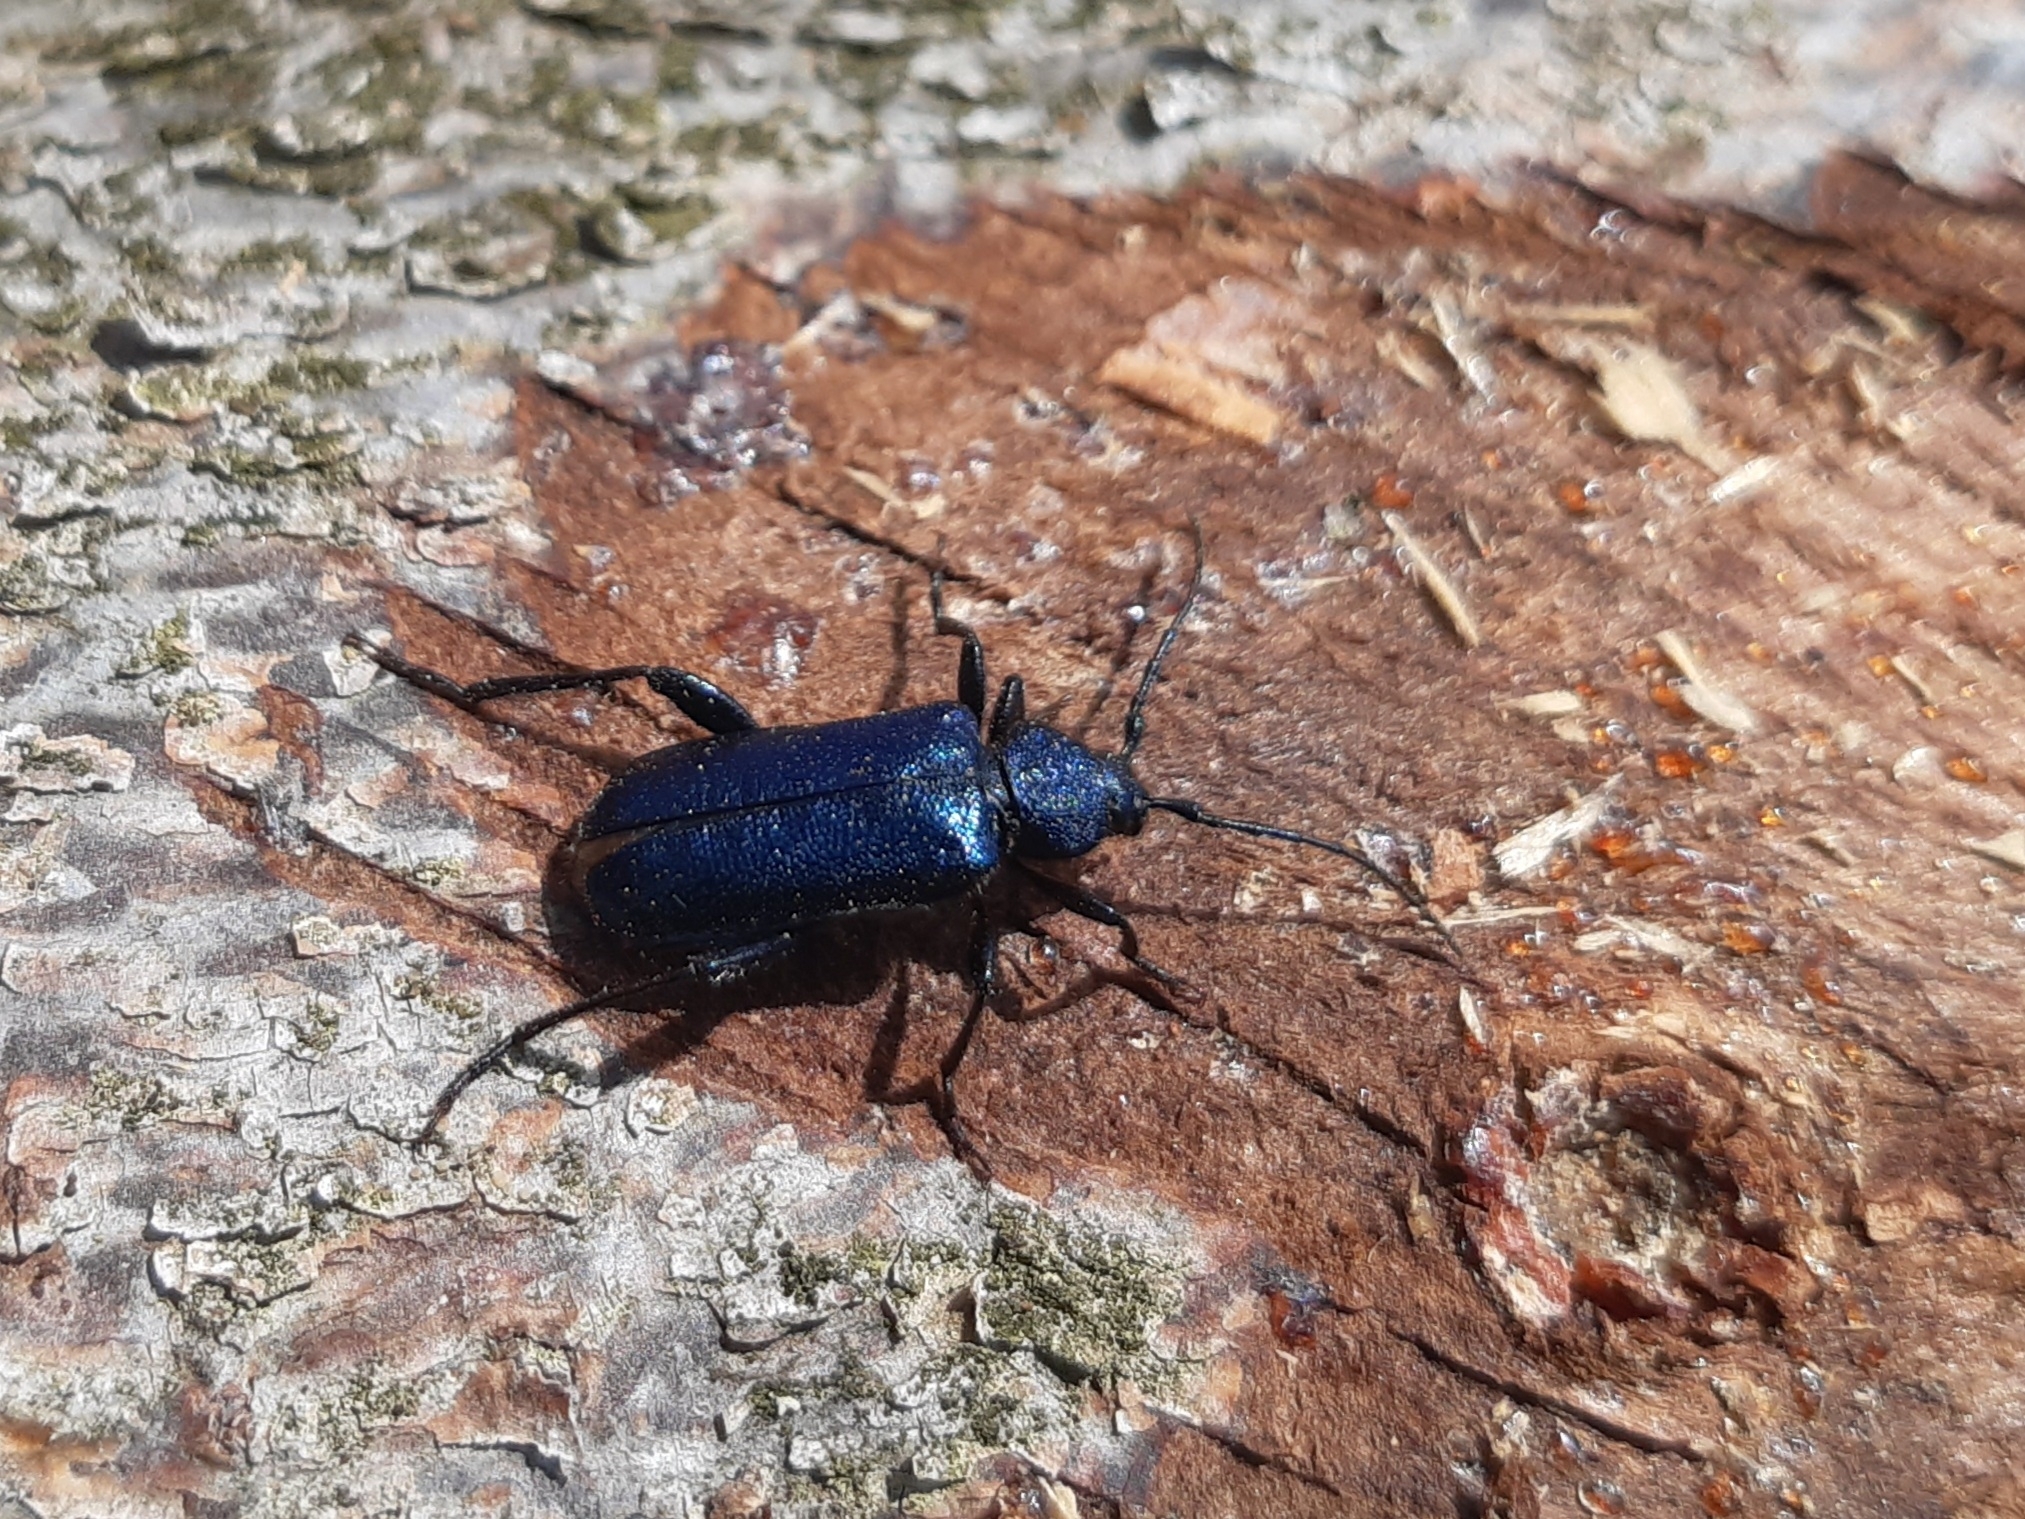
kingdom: Animalia
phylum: Arthropoda
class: Insecta
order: Coleoptera
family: Cerambycidae
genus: Callidium
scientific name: Callidium violaceum
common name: Violet tanbark beetle
